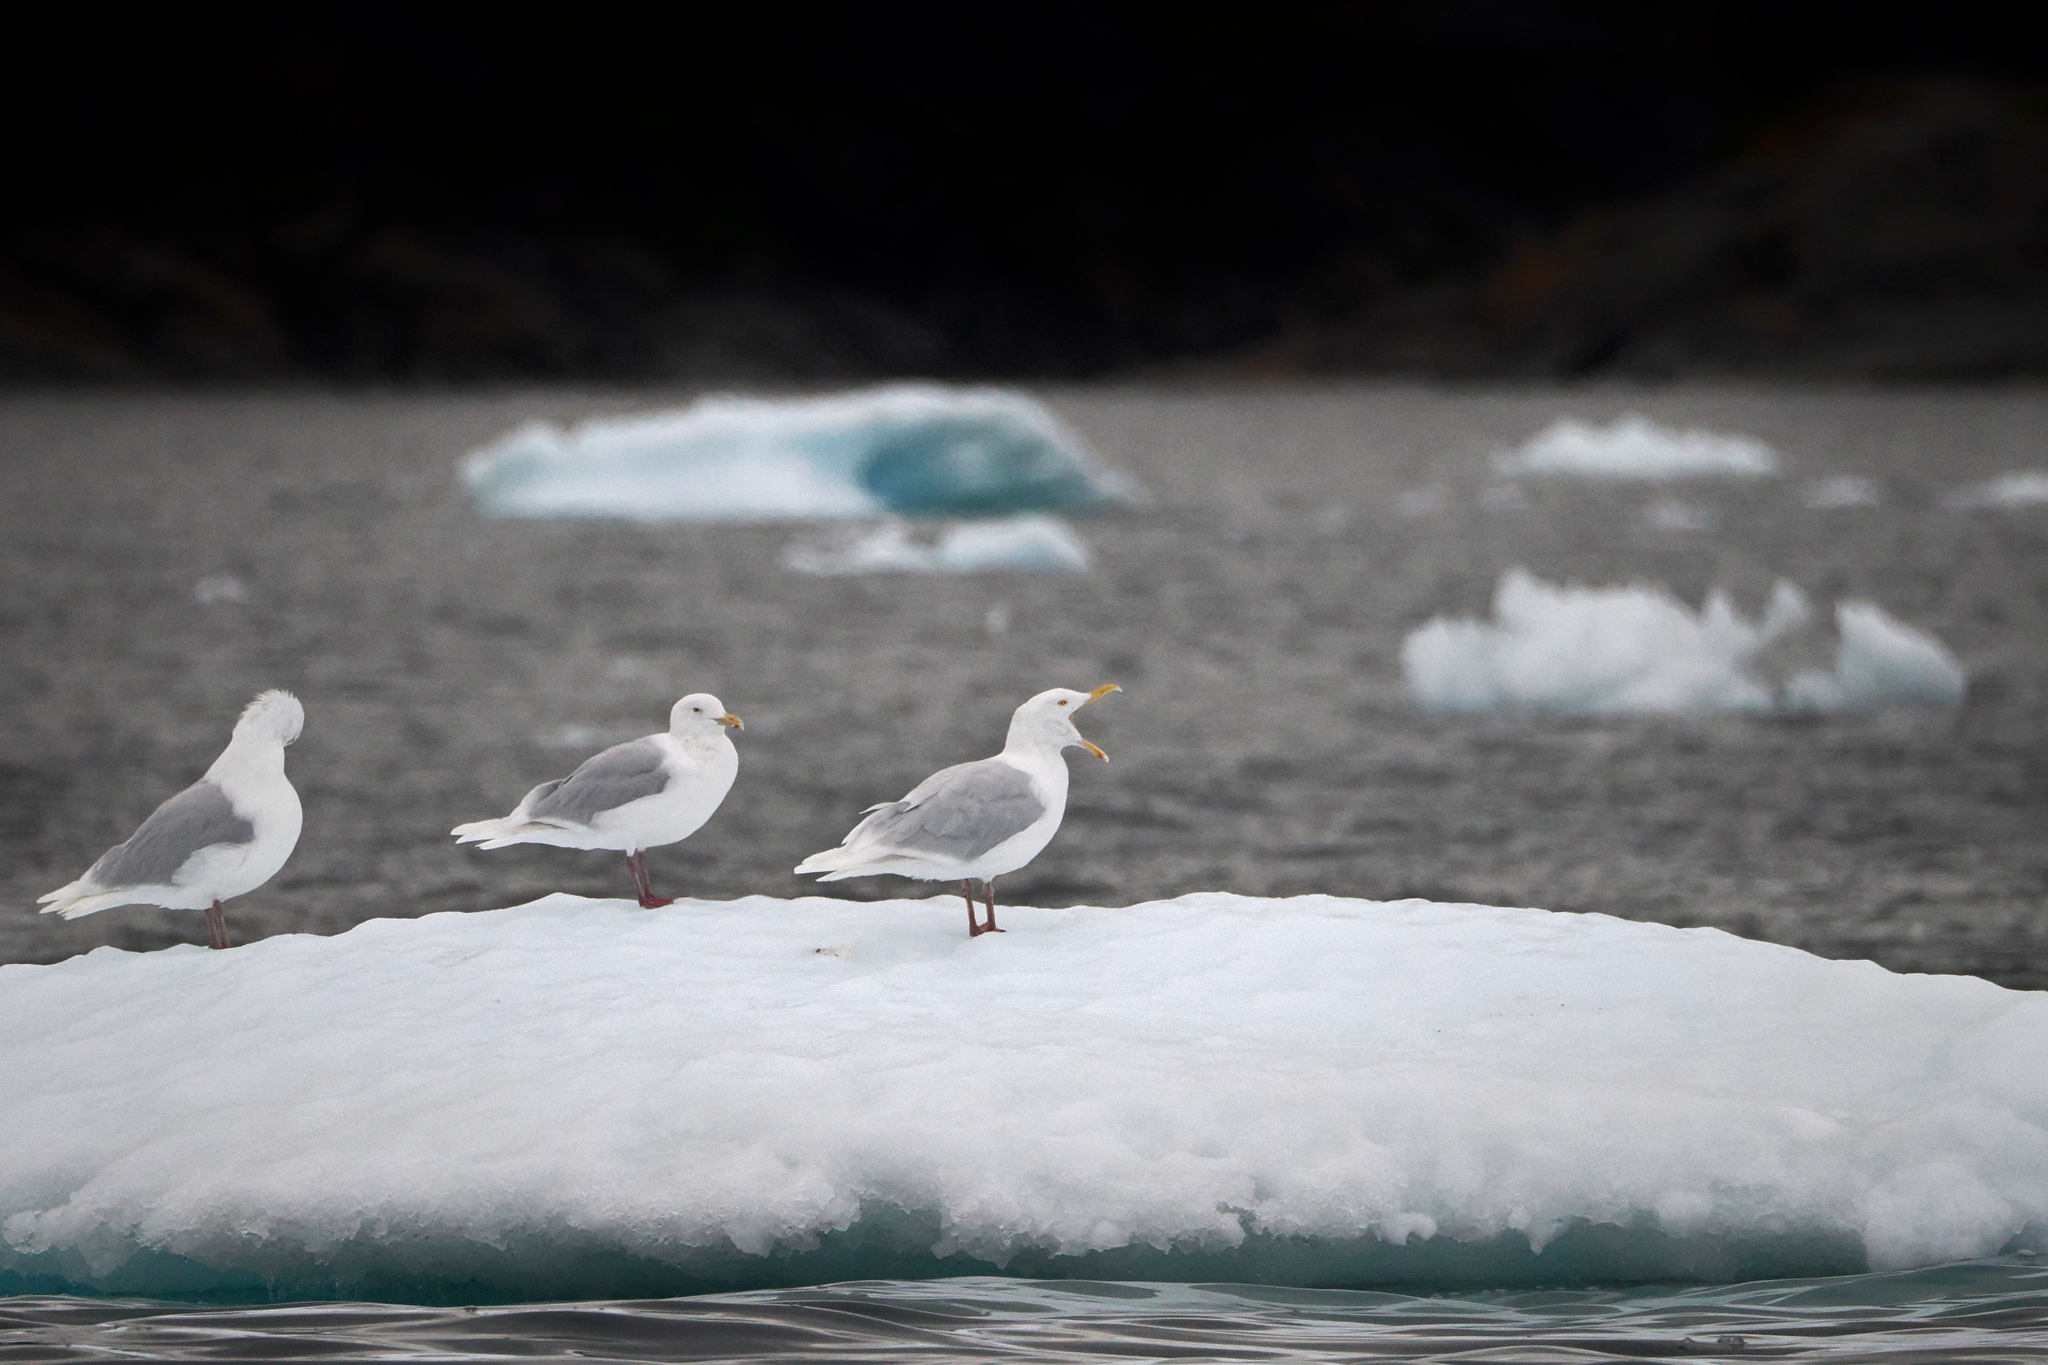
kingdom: Animalia
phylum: Chordata
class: Aves
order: Charadriiformes
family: Laridae
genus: Larus
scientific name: Larus hyperboreus
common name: Glaucous gull
